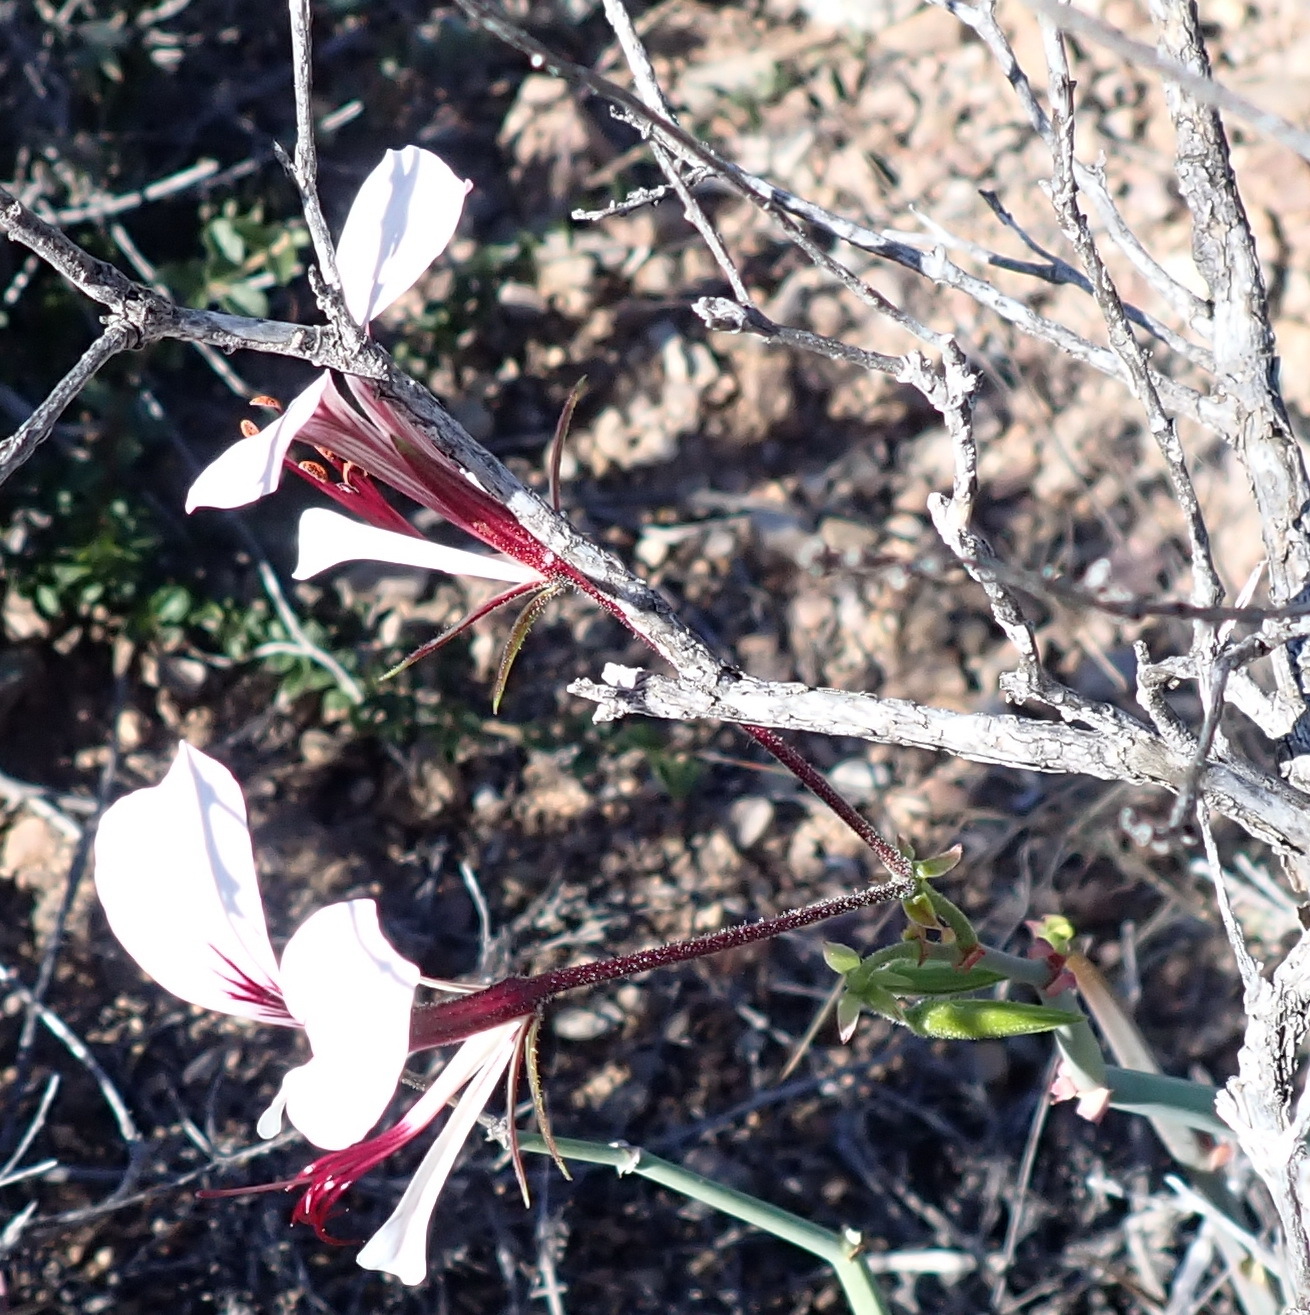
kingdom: Plantae
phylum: Tracheophyta
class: Magnoliopsida
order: Geraniales
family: Geraniaceae
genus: Pelargonium
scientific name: Pelargonium tetragonum
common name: Square-stack crane's-bill
